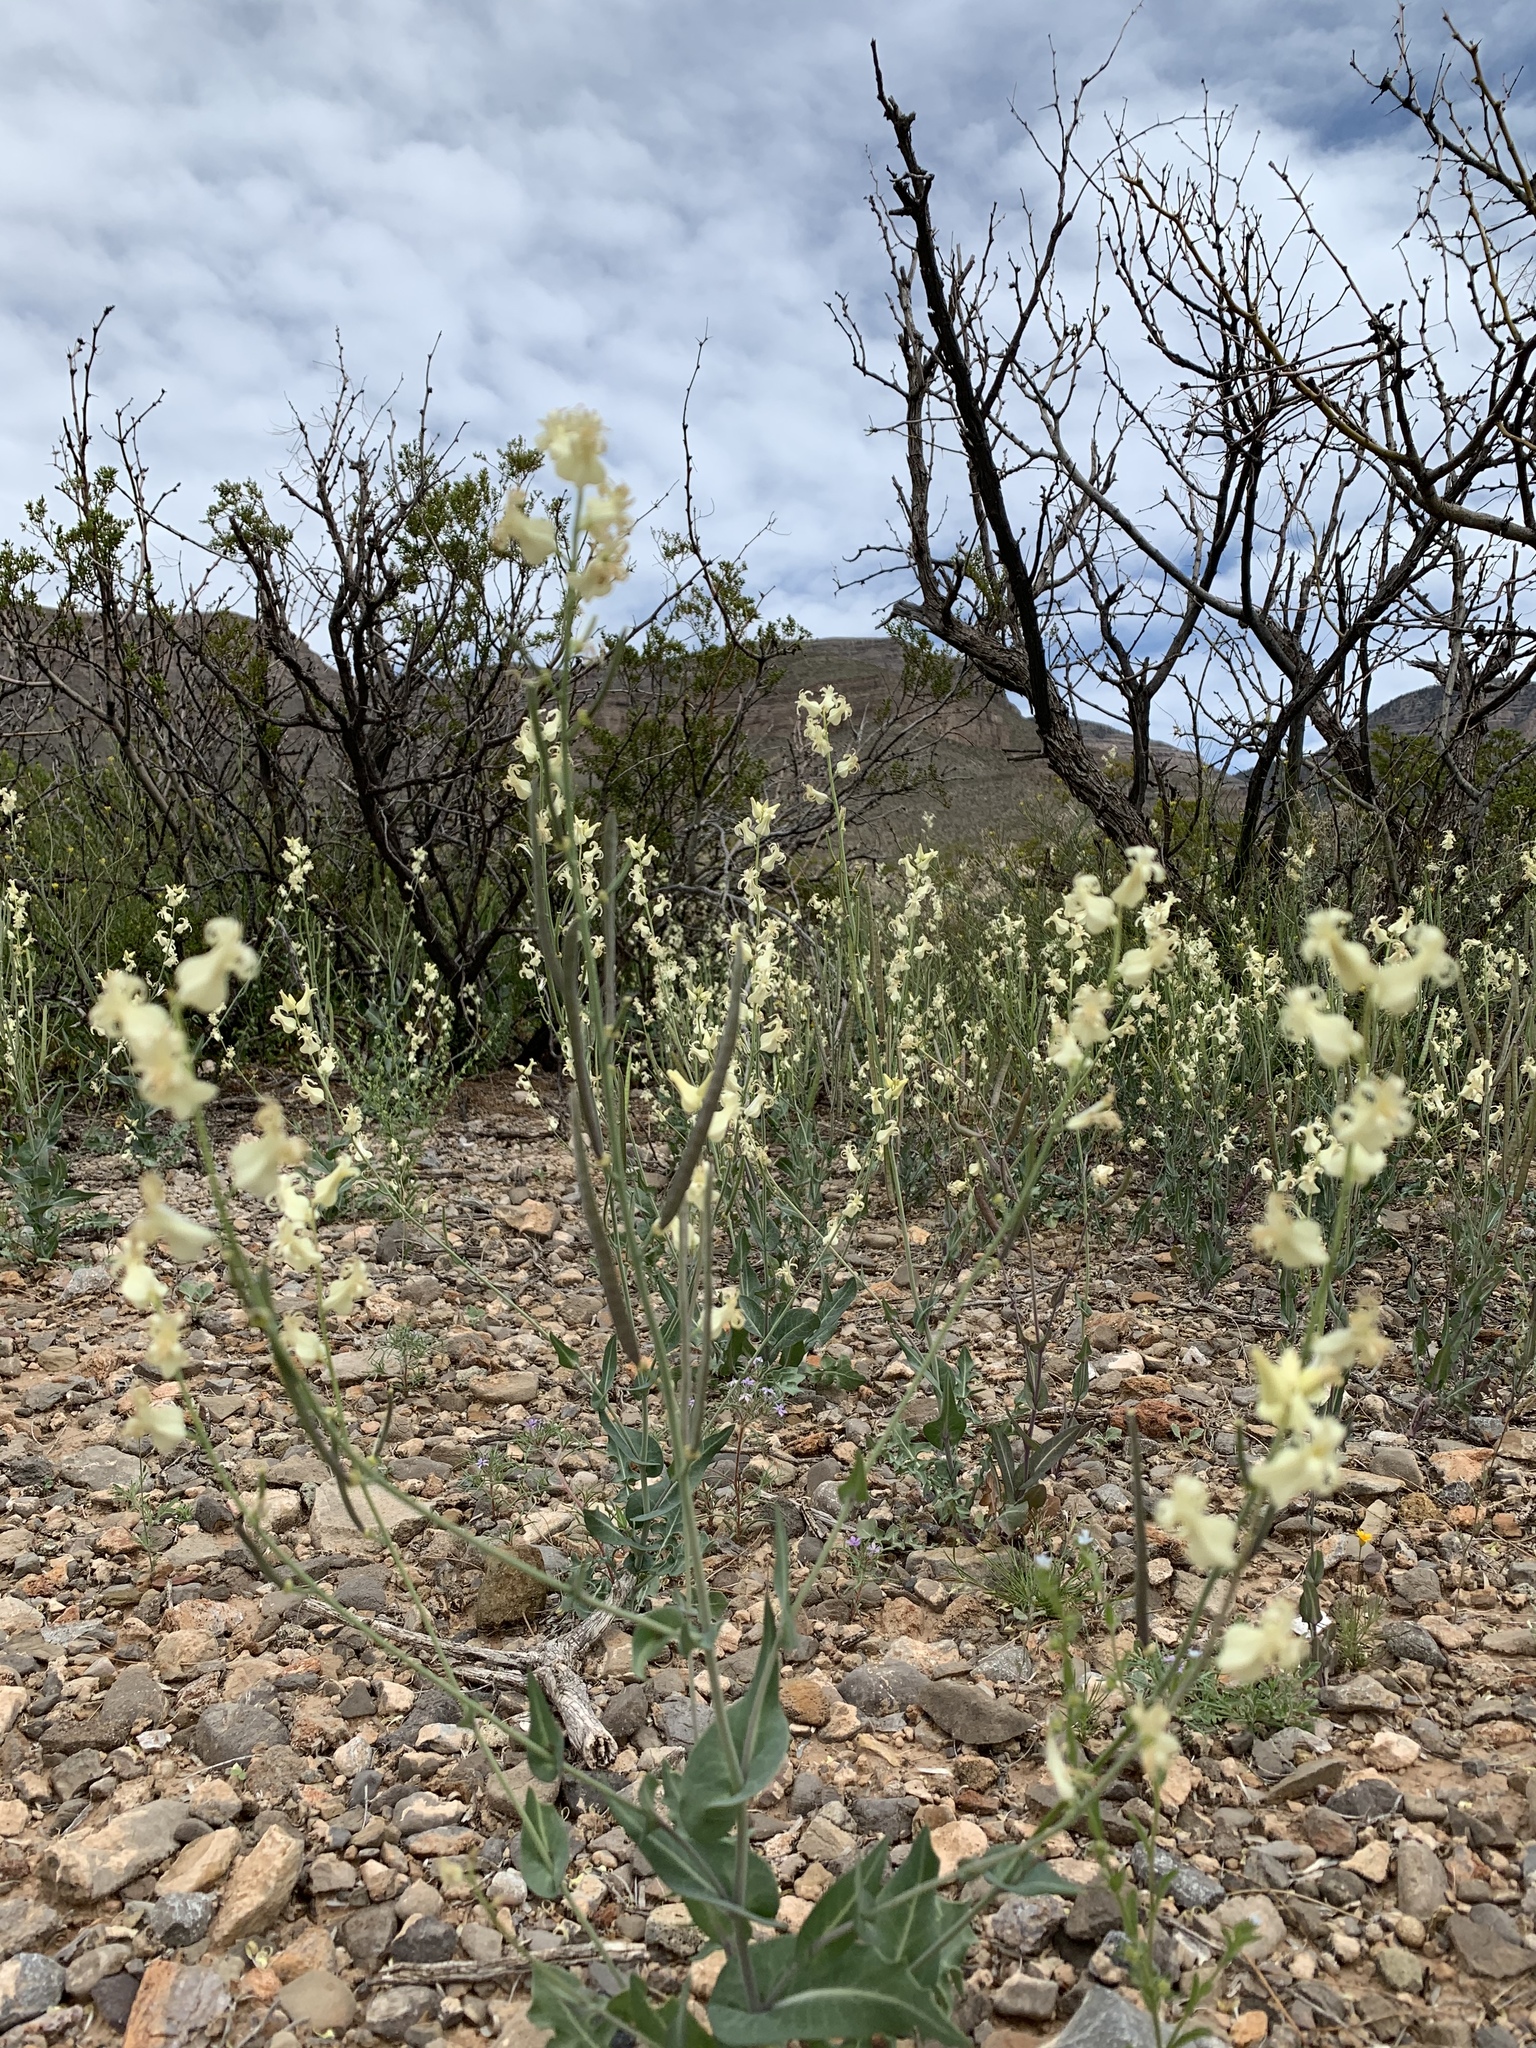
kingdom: Plantae
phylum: Tracheophyta
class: Magnoliopsida
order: Brassicales
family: Brassicaceae
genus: Streptanthus
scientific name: Streptanthus carinatus
